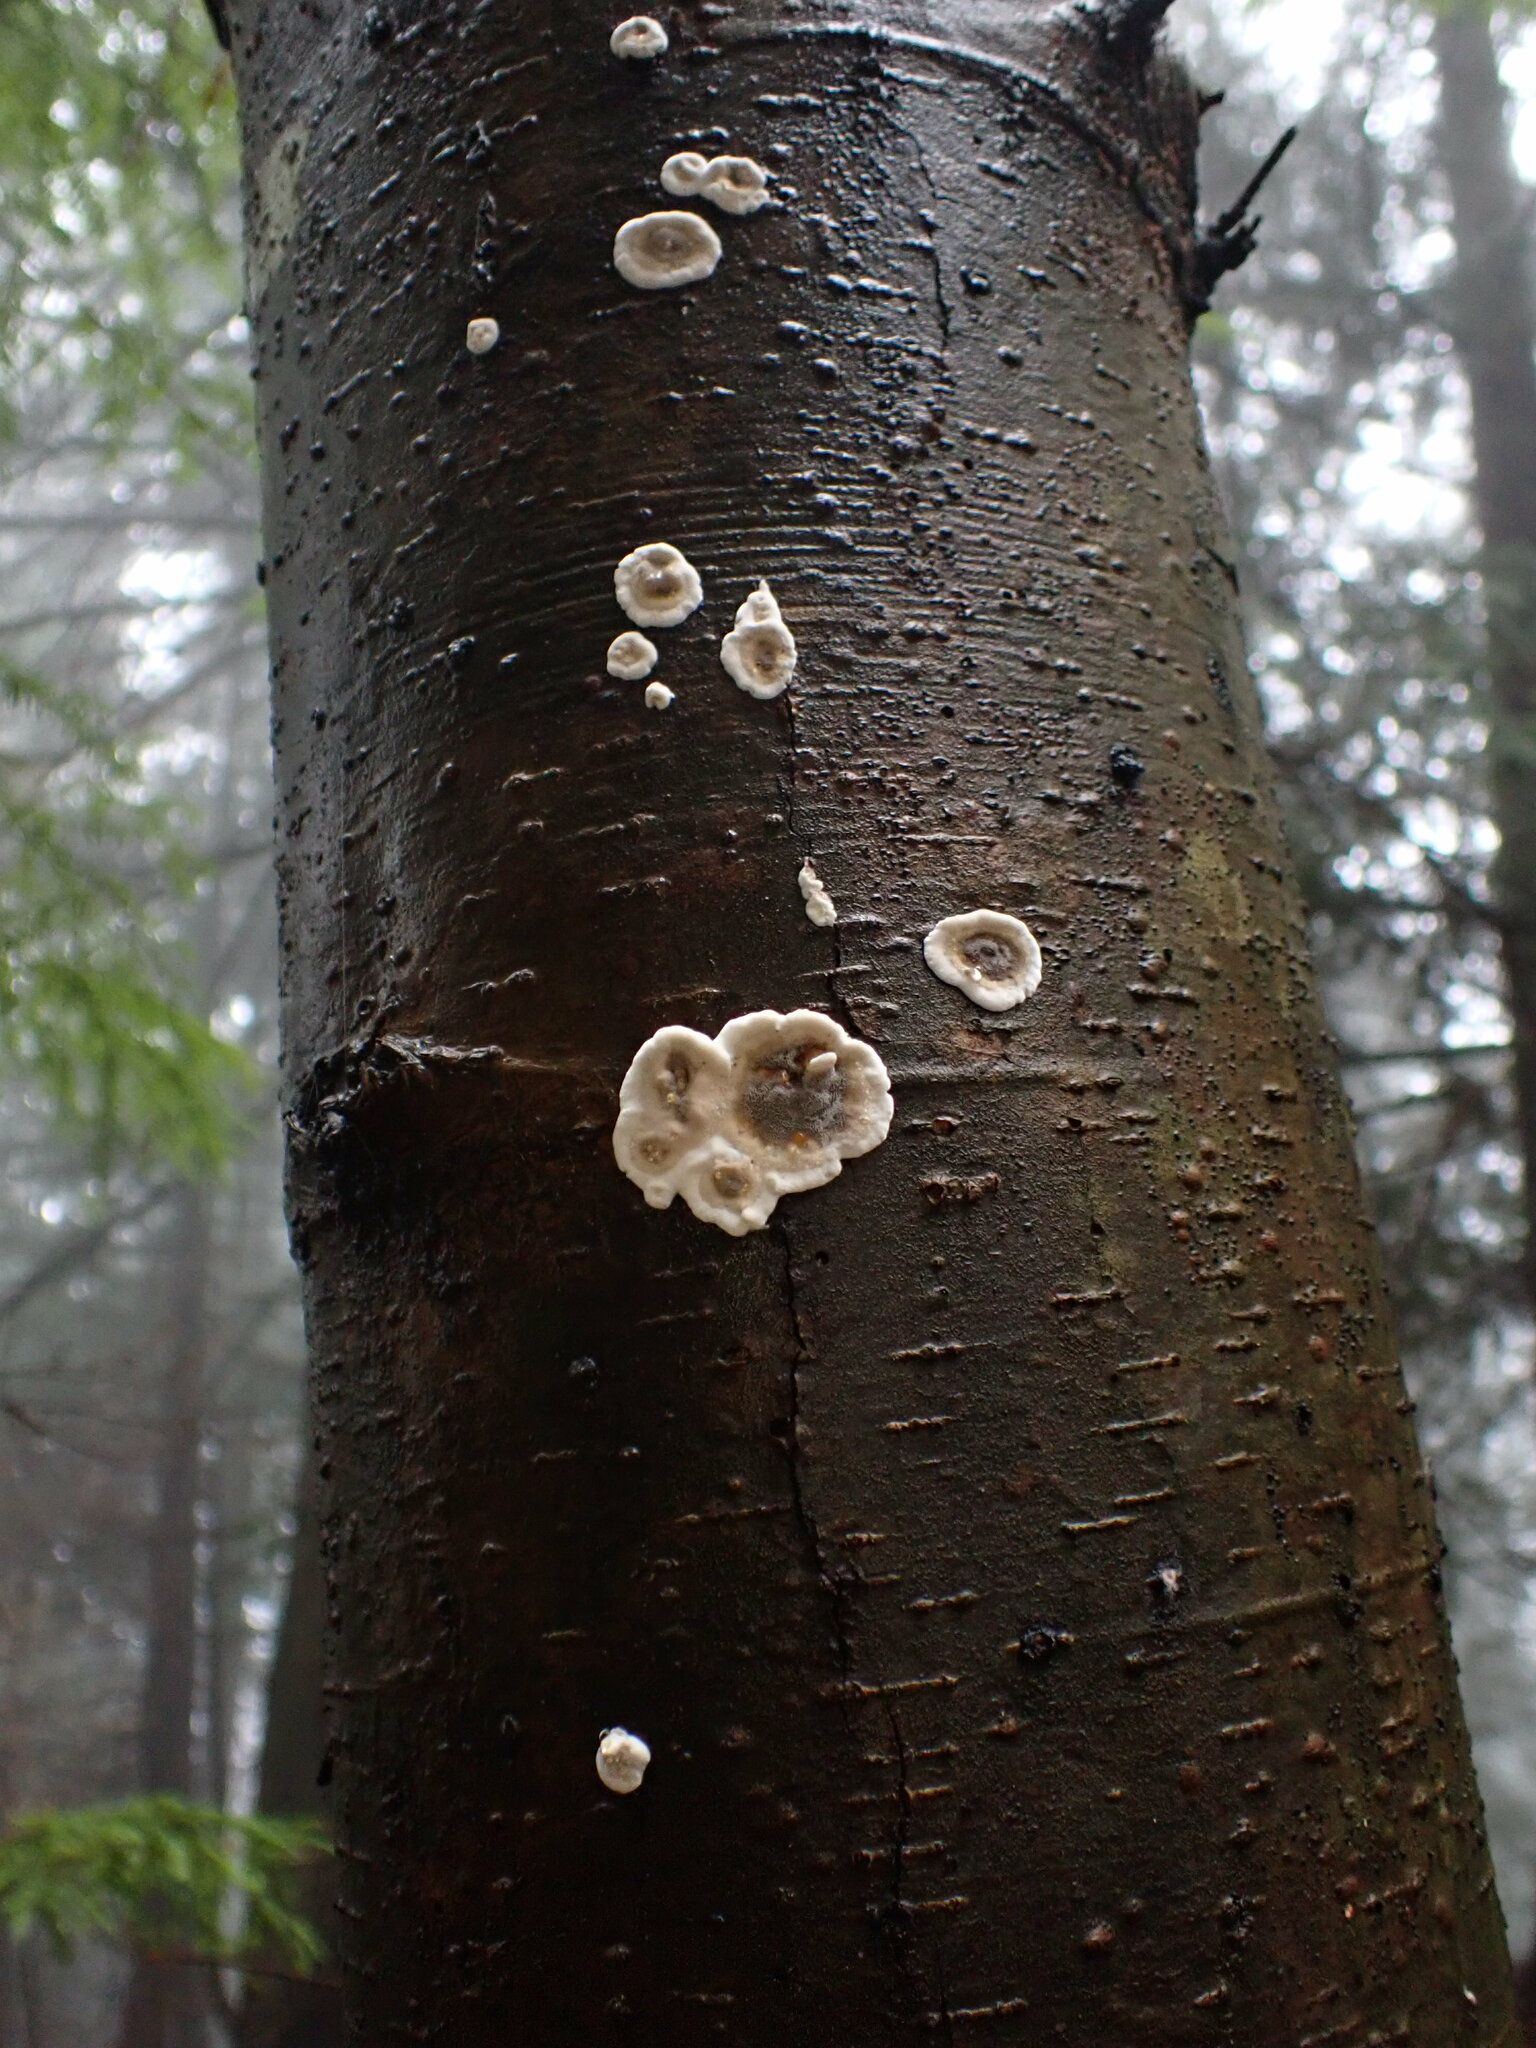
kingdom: Fungi
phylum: Basidiomycota
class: Agaricomycetes
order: Polyporales
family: Phanerochaetaceae
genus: Bjerkandera
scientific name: Bjerkandera adusta
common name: Smoky bracket
